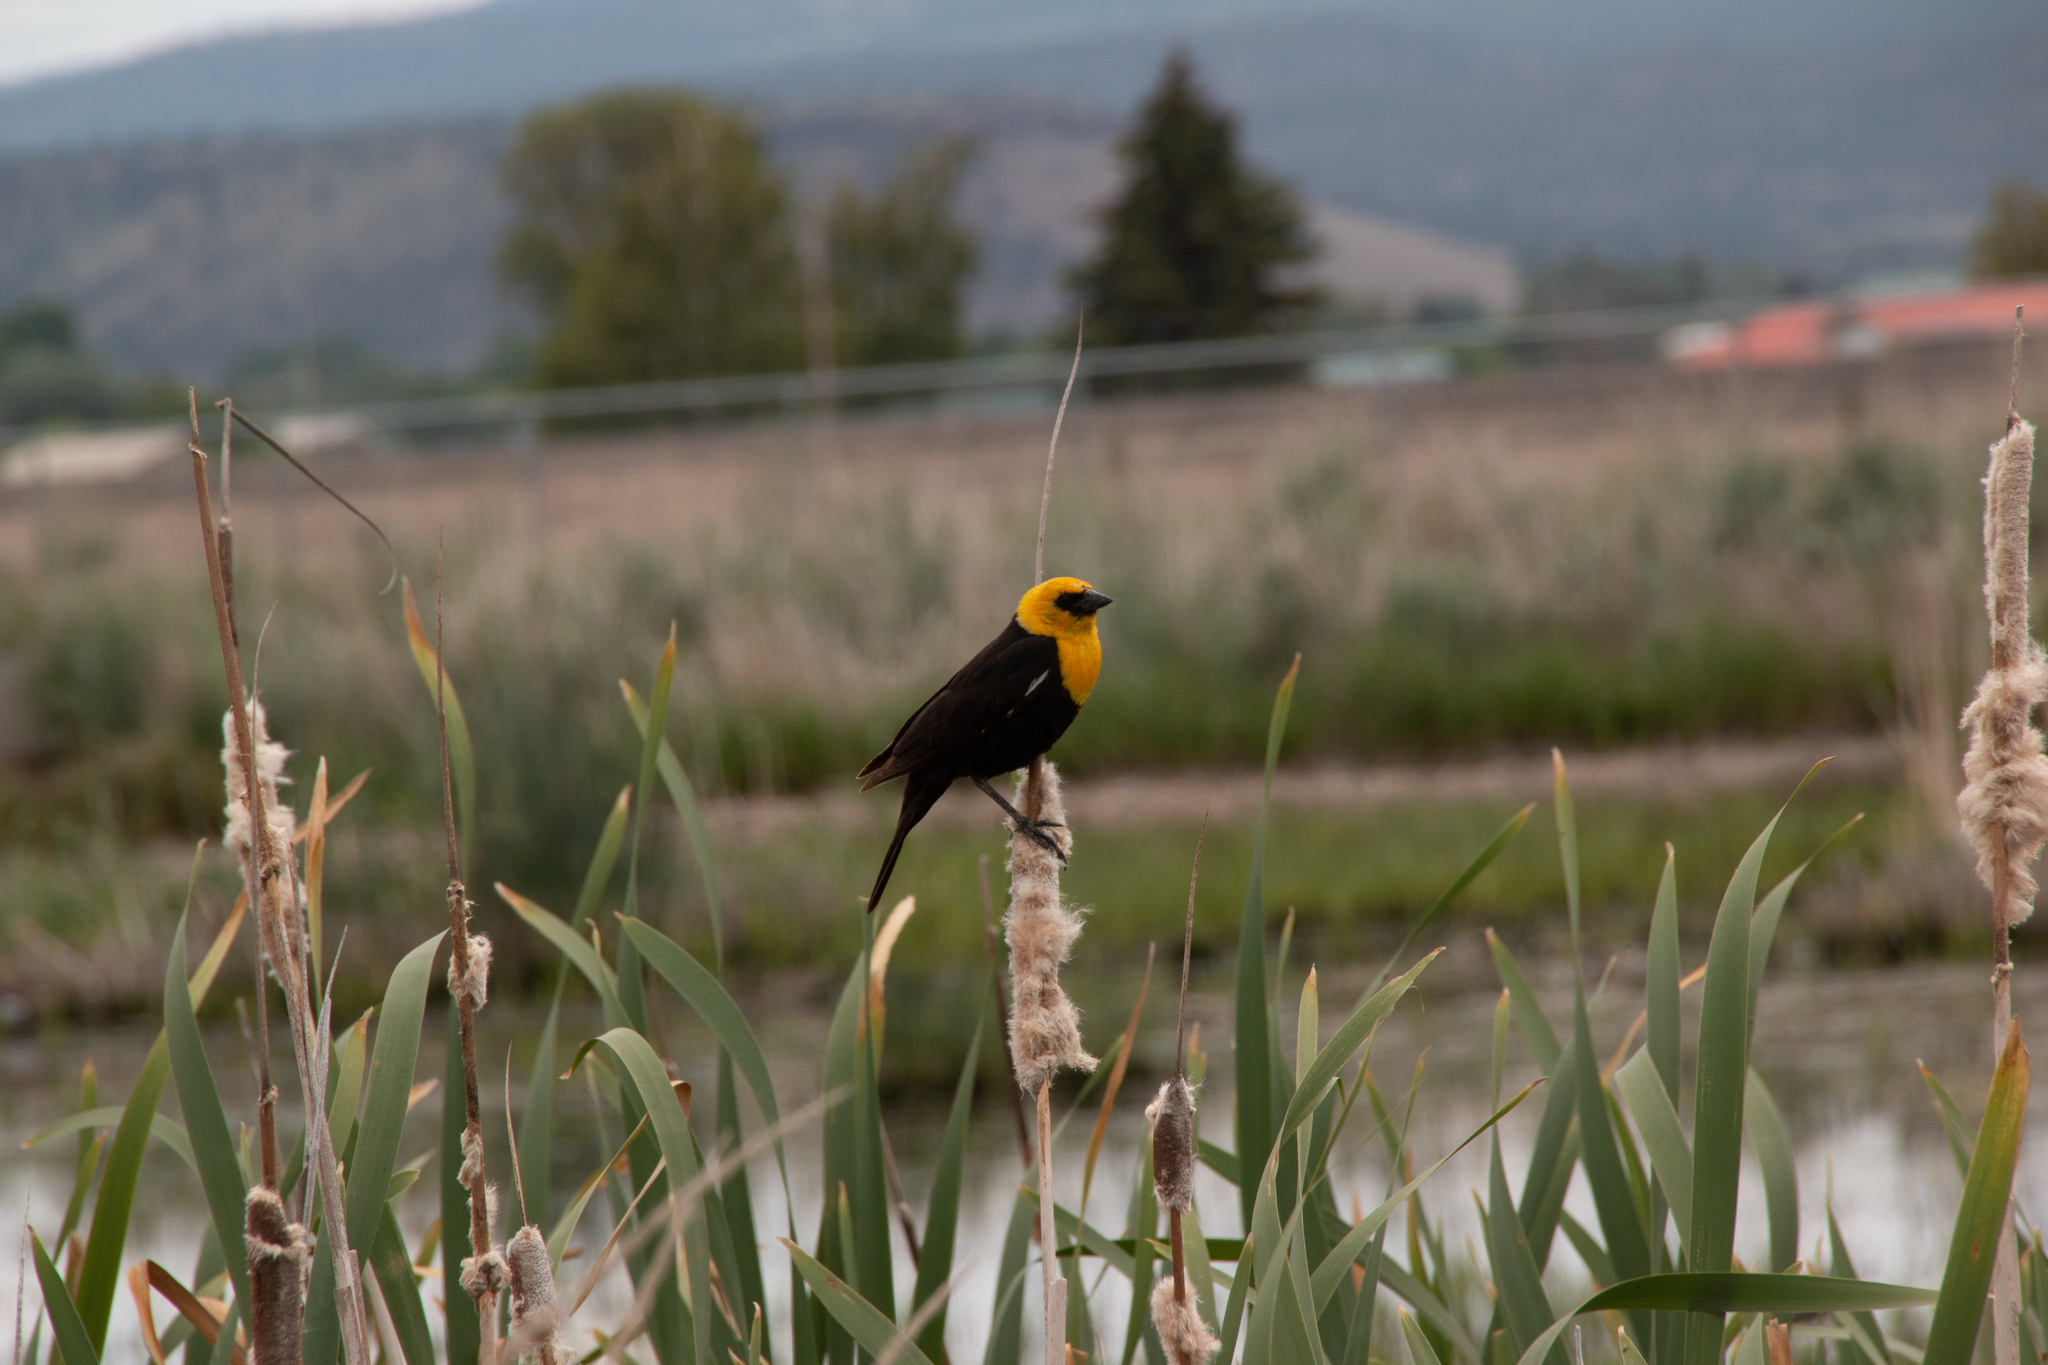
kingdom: Animalia
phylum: Chordata
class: Aves
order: Passeriformes
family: Icteridae
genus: Xanthocephalus
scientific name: Xanthocephalus xanthocephalus
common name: Yellow-headed blackbird
